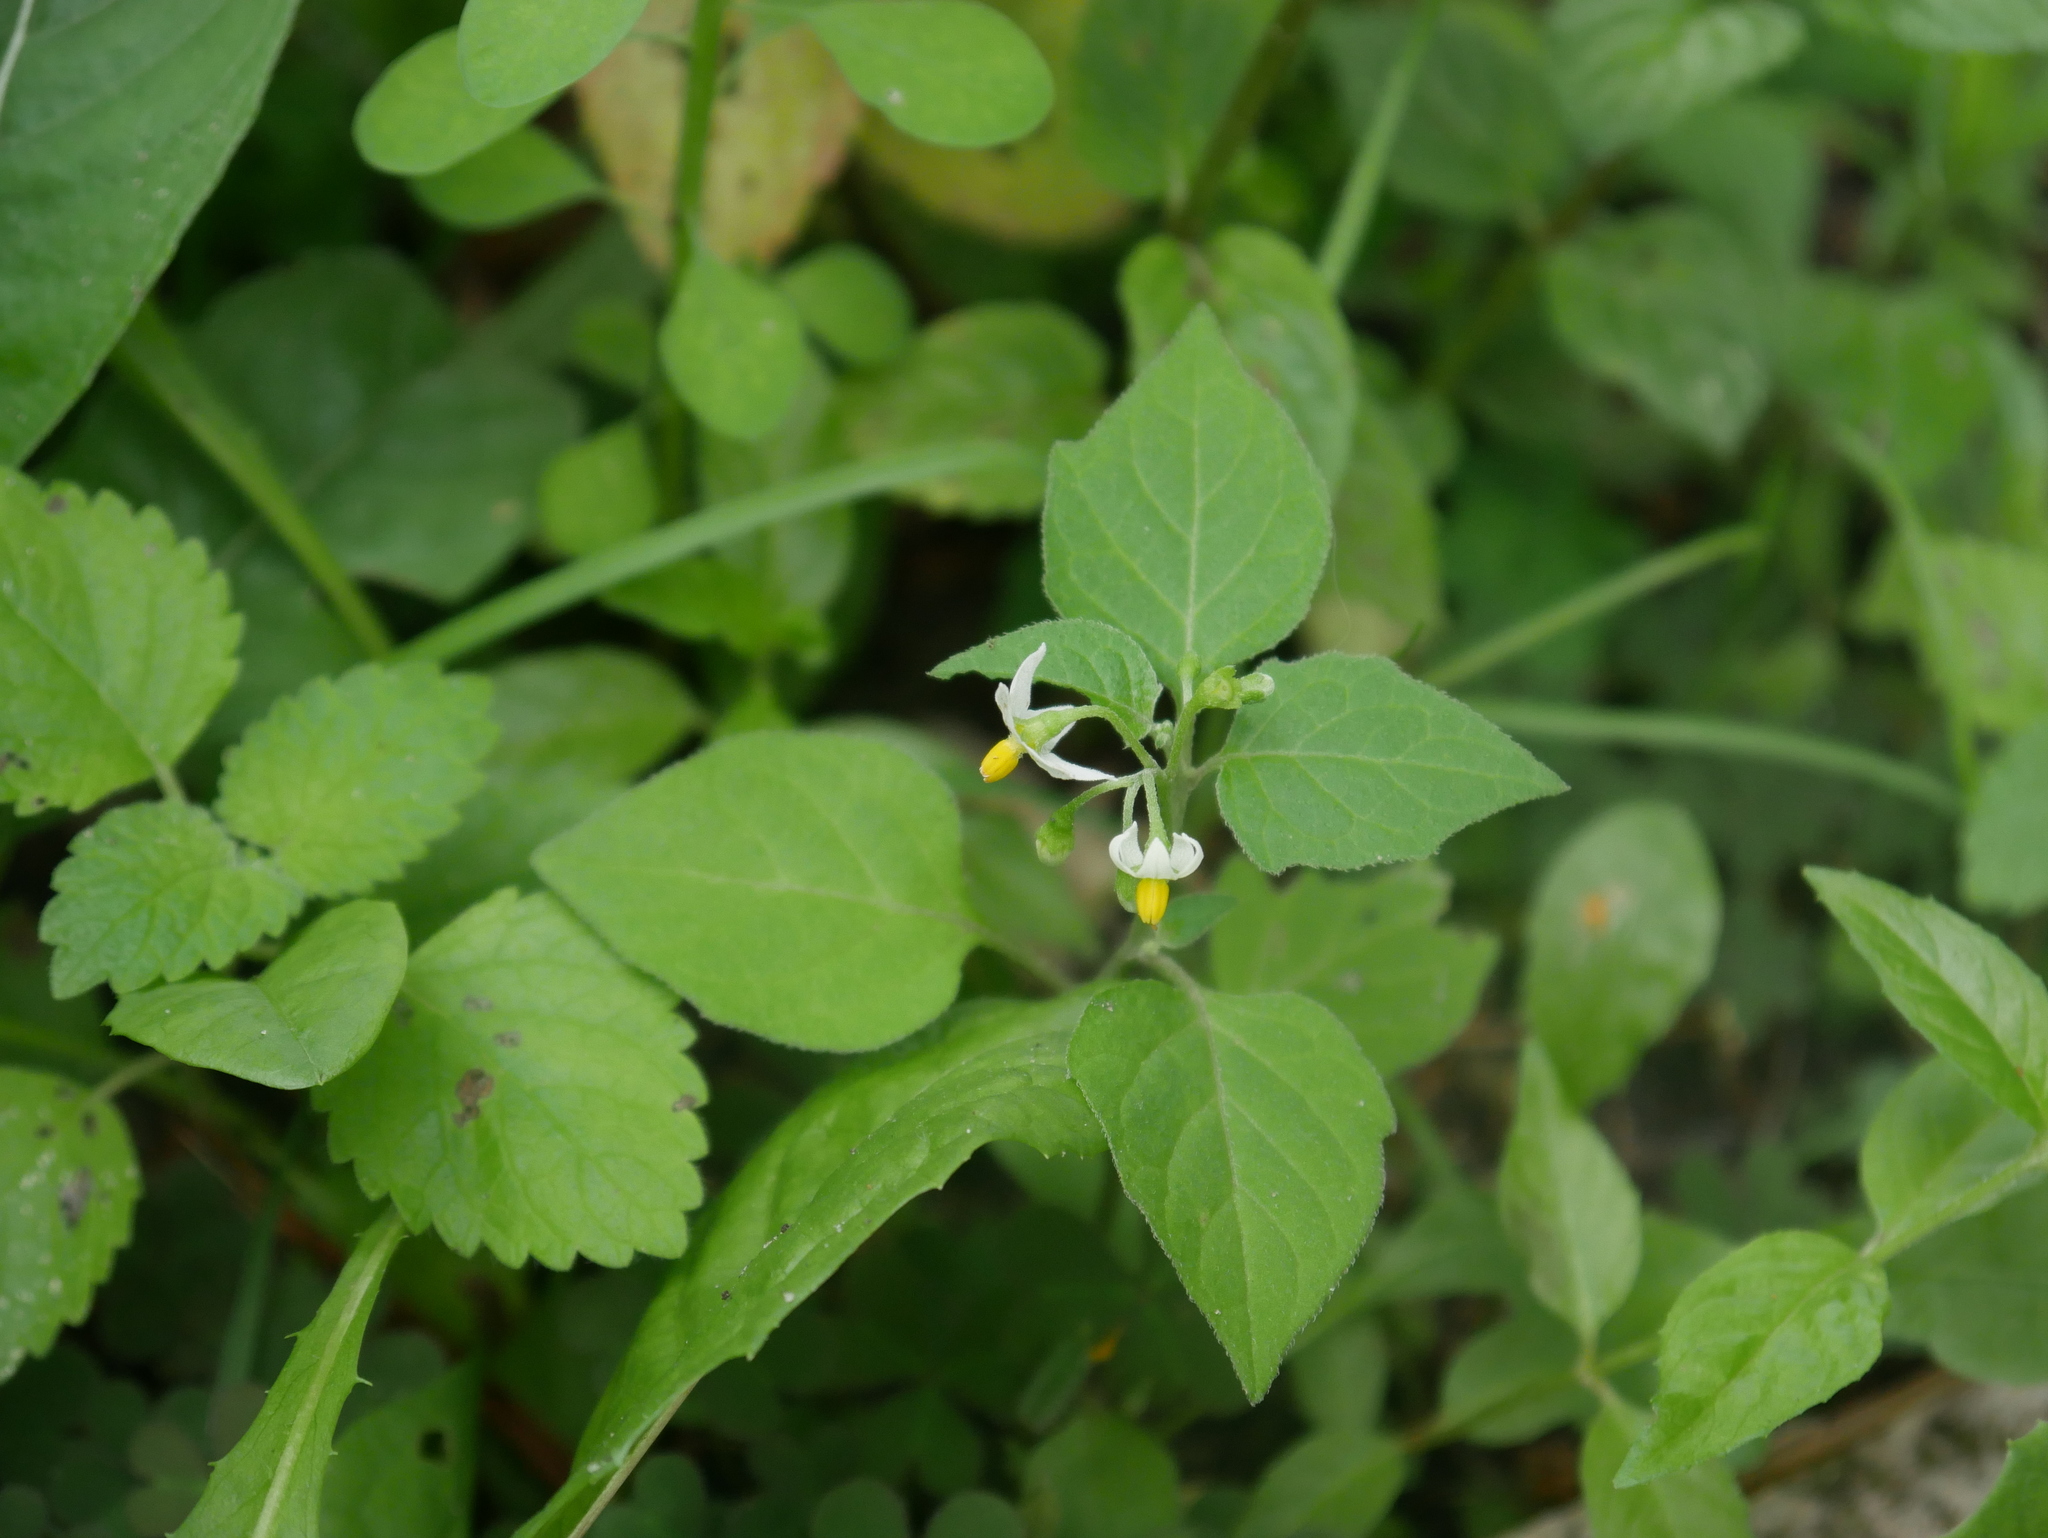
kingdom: Plantae
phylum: Tracheophyta
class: Magnoliopsida
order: Solanales
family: Solanaceae
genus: Solanum
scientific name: Solanum nigrum
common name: Black nightshade
